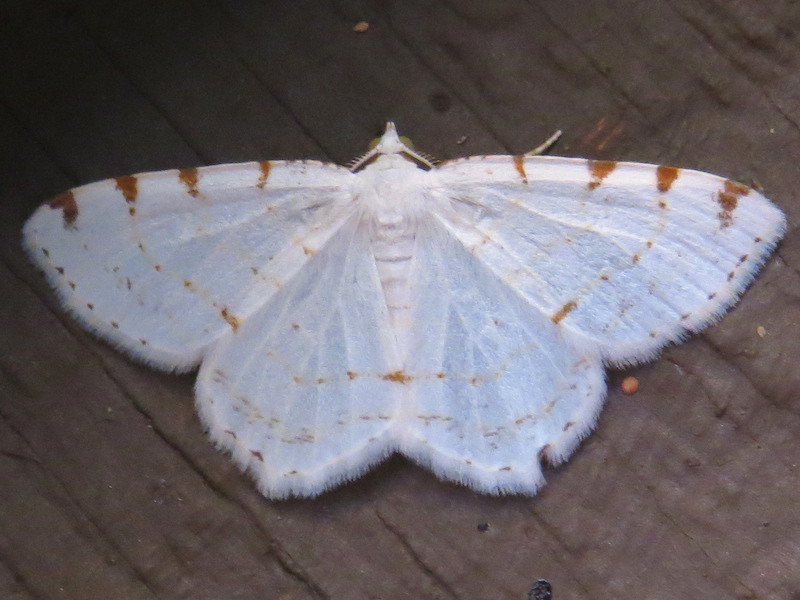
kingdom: Animalia
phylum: Arthropoda
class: Insecta
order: Lepidoptera
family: Geometridae
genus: Macaria
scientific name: Macaria pustularia
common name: Lesser maple spanworm moth
